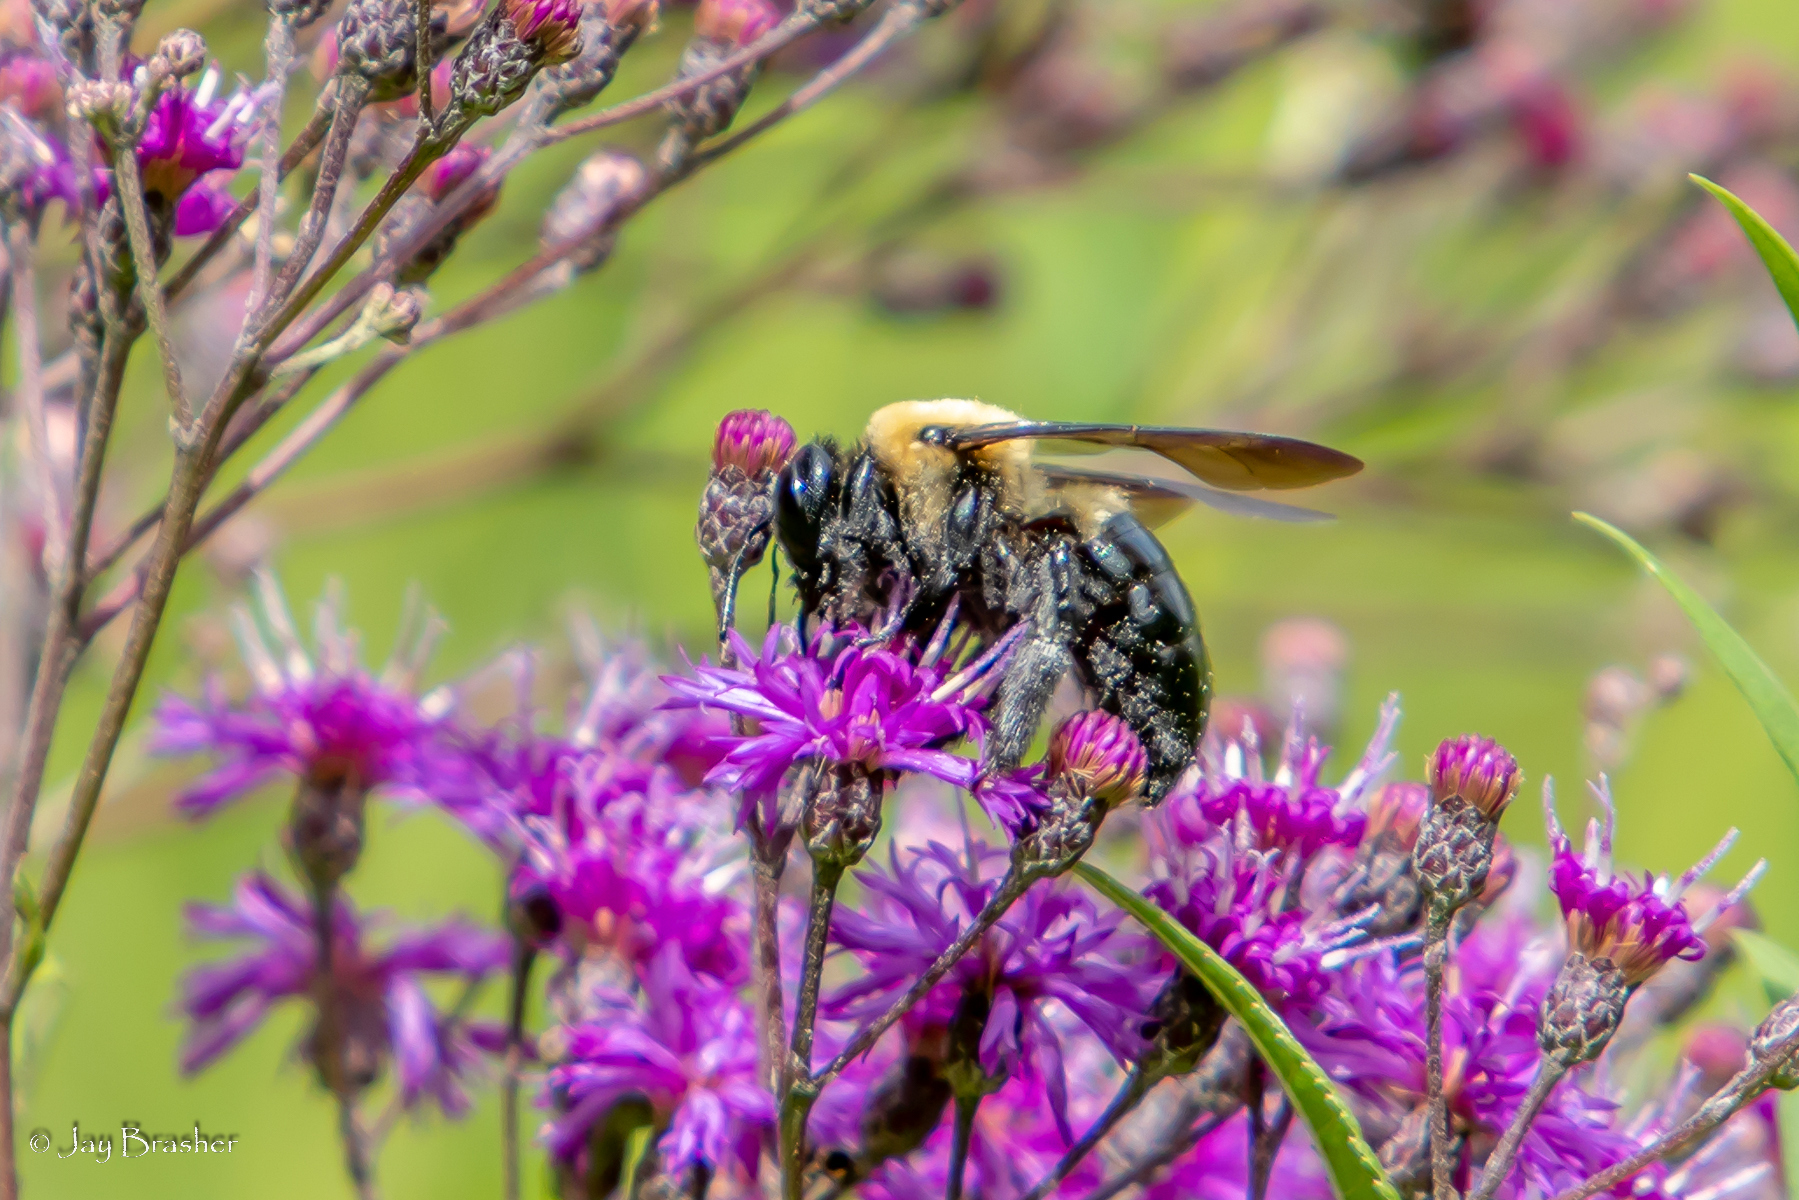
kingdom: Animalia
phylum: Arthropoda
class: Insecta
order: Hymenoptera
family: Apidae
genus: Xylocopa
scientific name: Xylocopa virginica
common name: Carpenter bee
